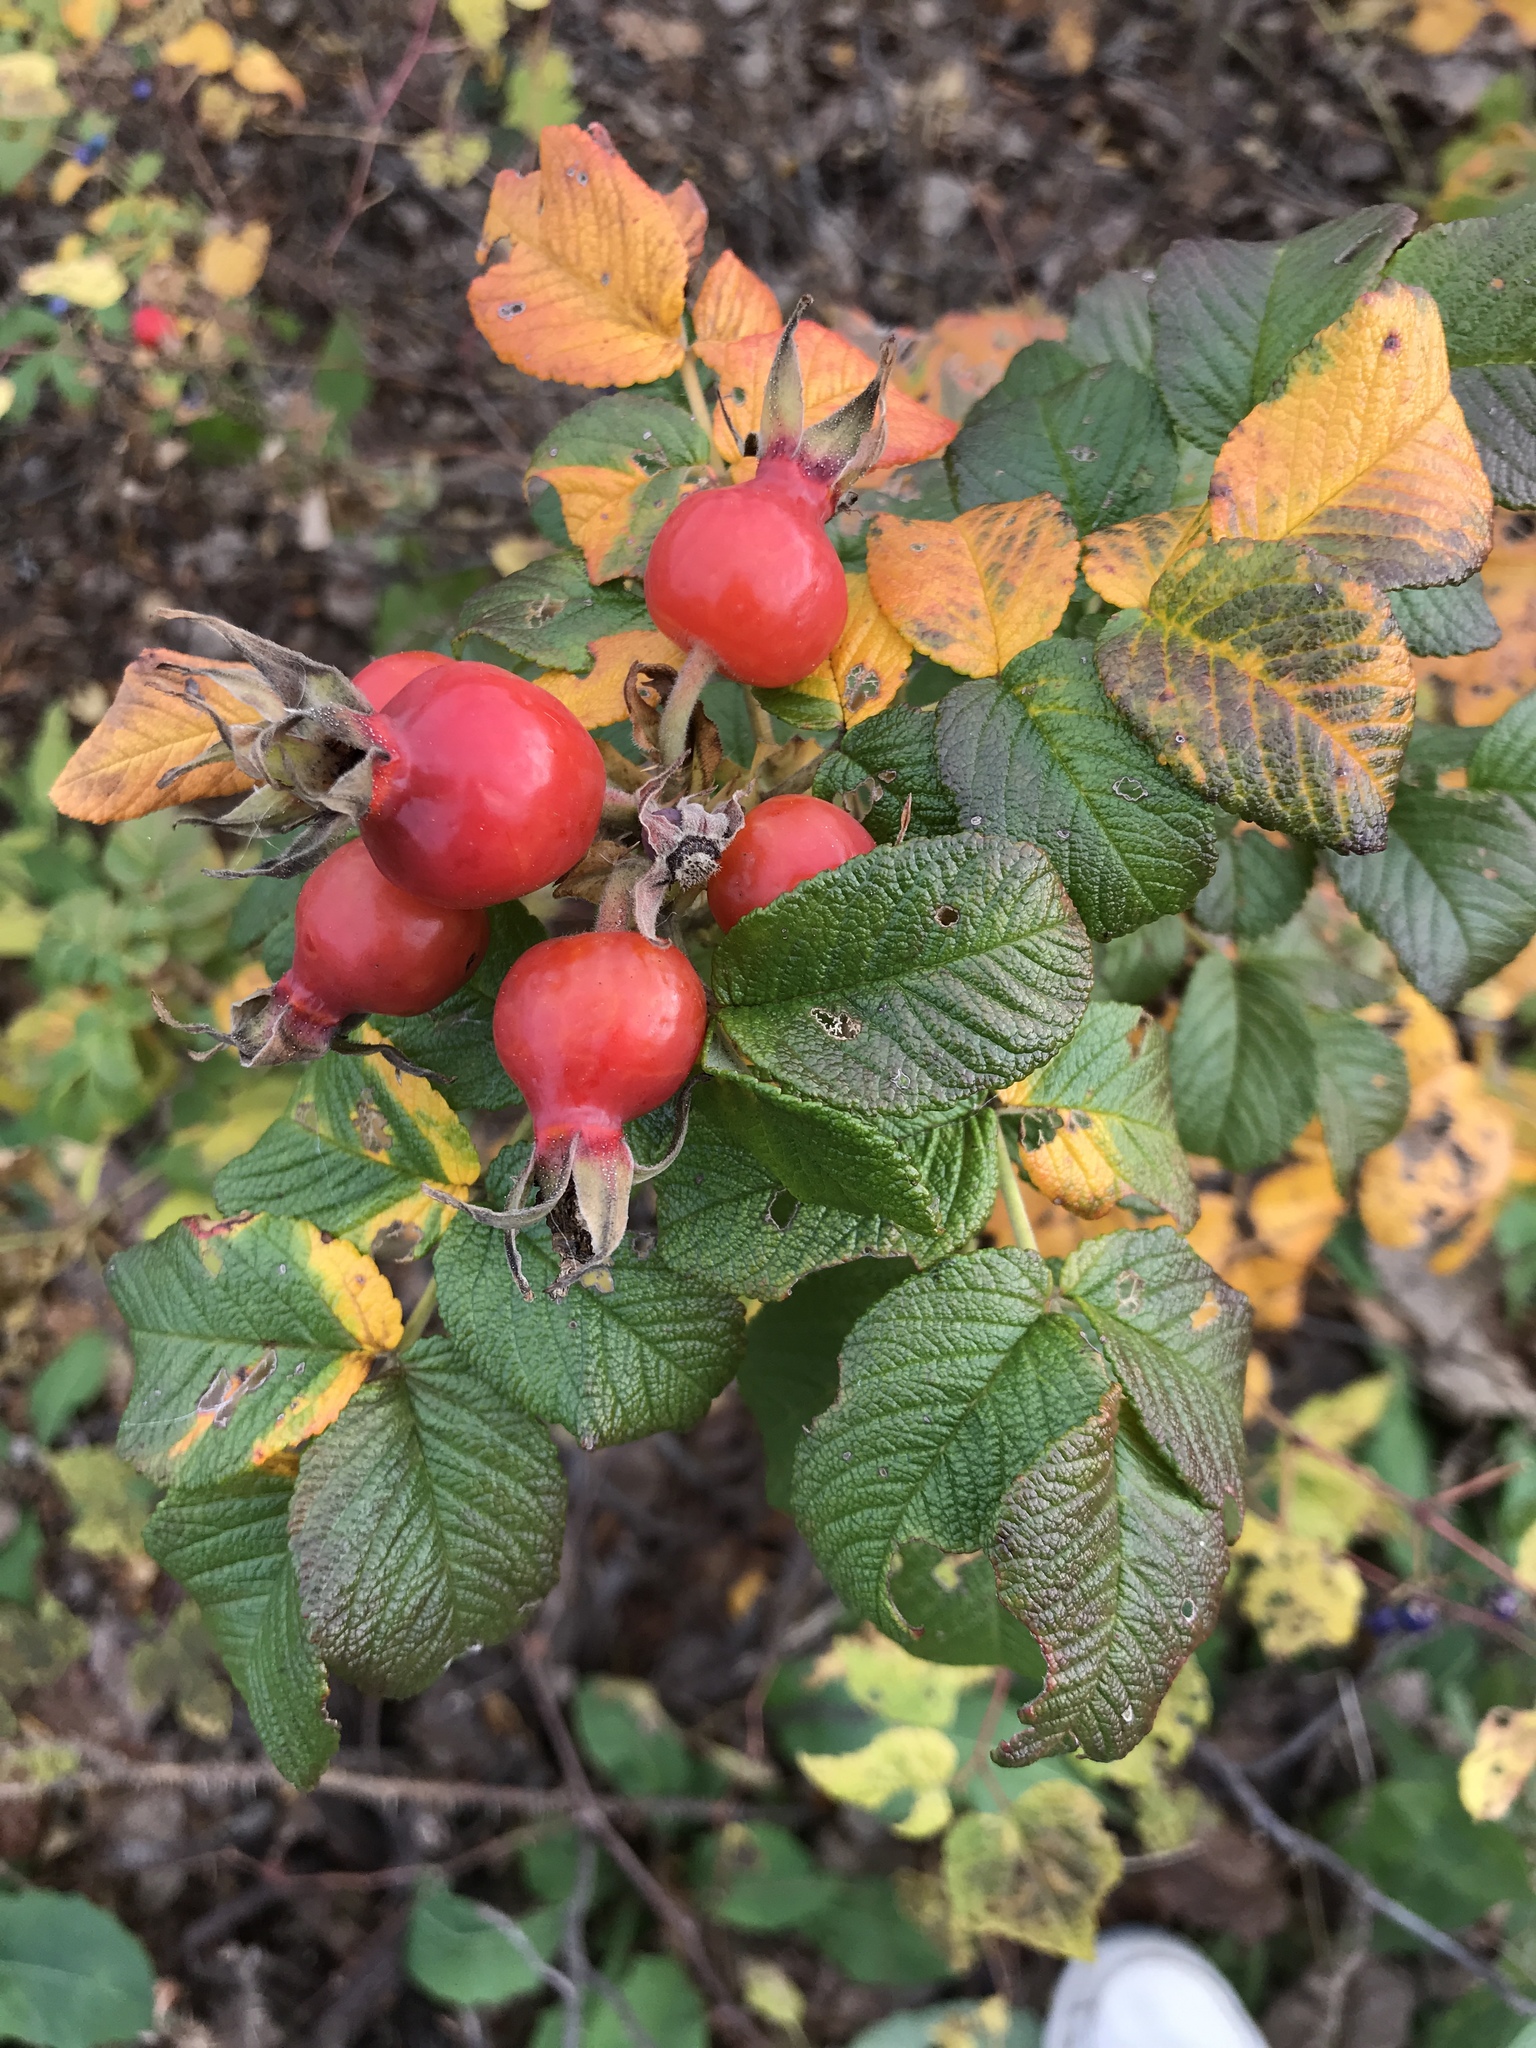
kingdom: Plantae
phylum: Tracheophyta
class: Magnoliopsida
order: Rosales
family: Rosaceae
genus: Rosa
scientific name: Rosa rugosa
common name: Japanese rose
